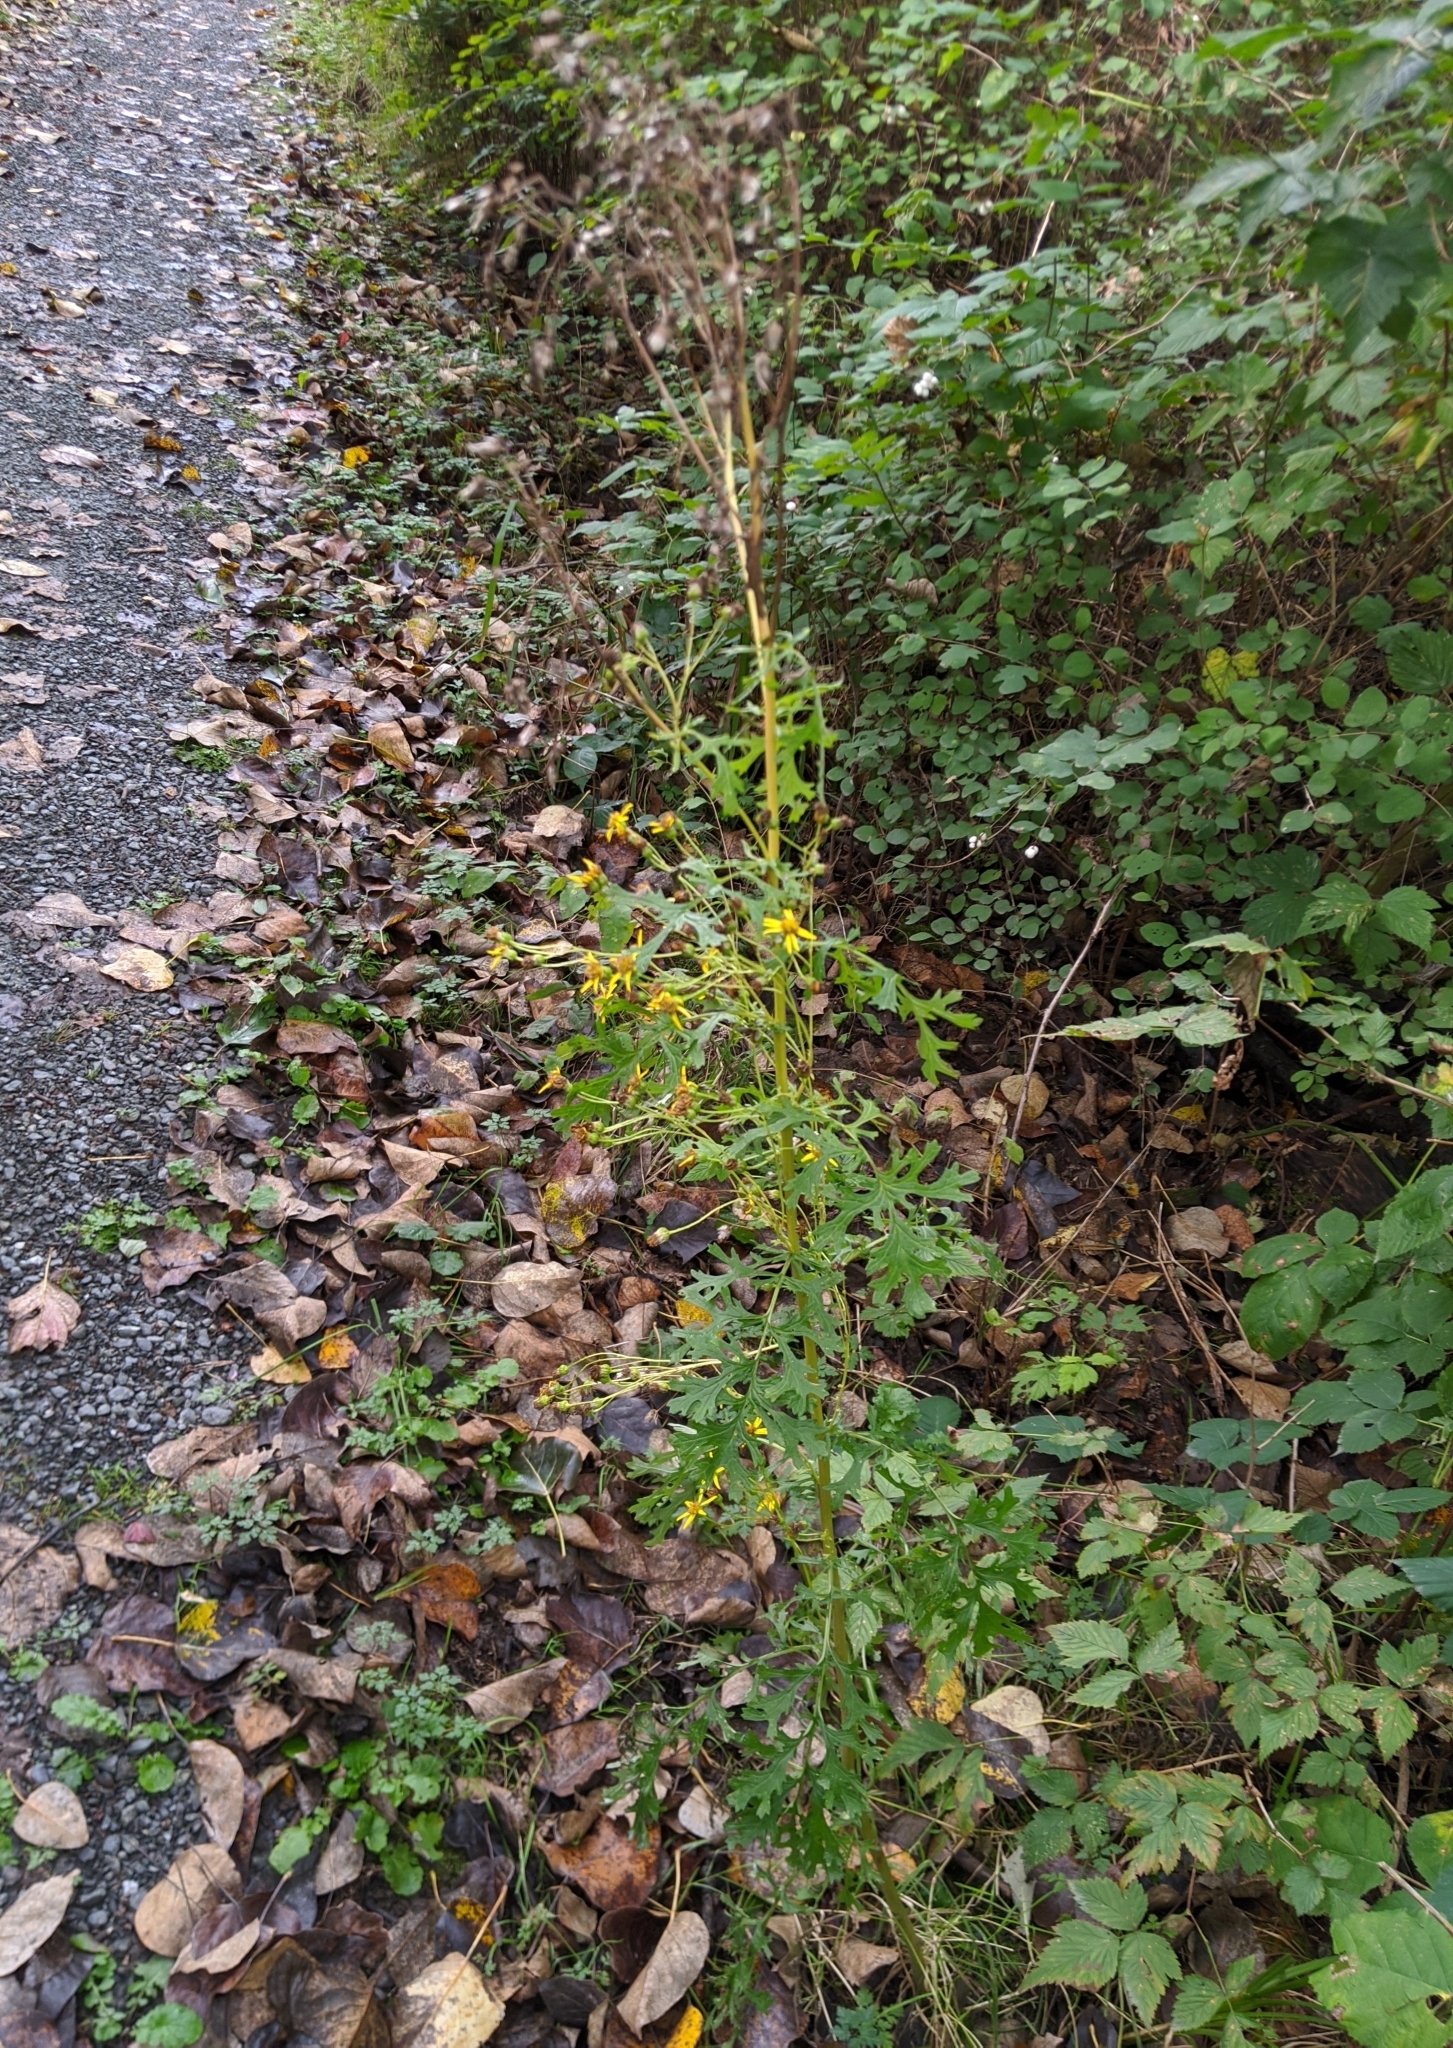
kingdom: Plantae
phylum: Tracheophyta
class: Magnoliopsida
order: Asterales
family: Asteraceae
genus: Jacobaea
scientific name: Jacobaea vulgaris
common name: Stinking willie
